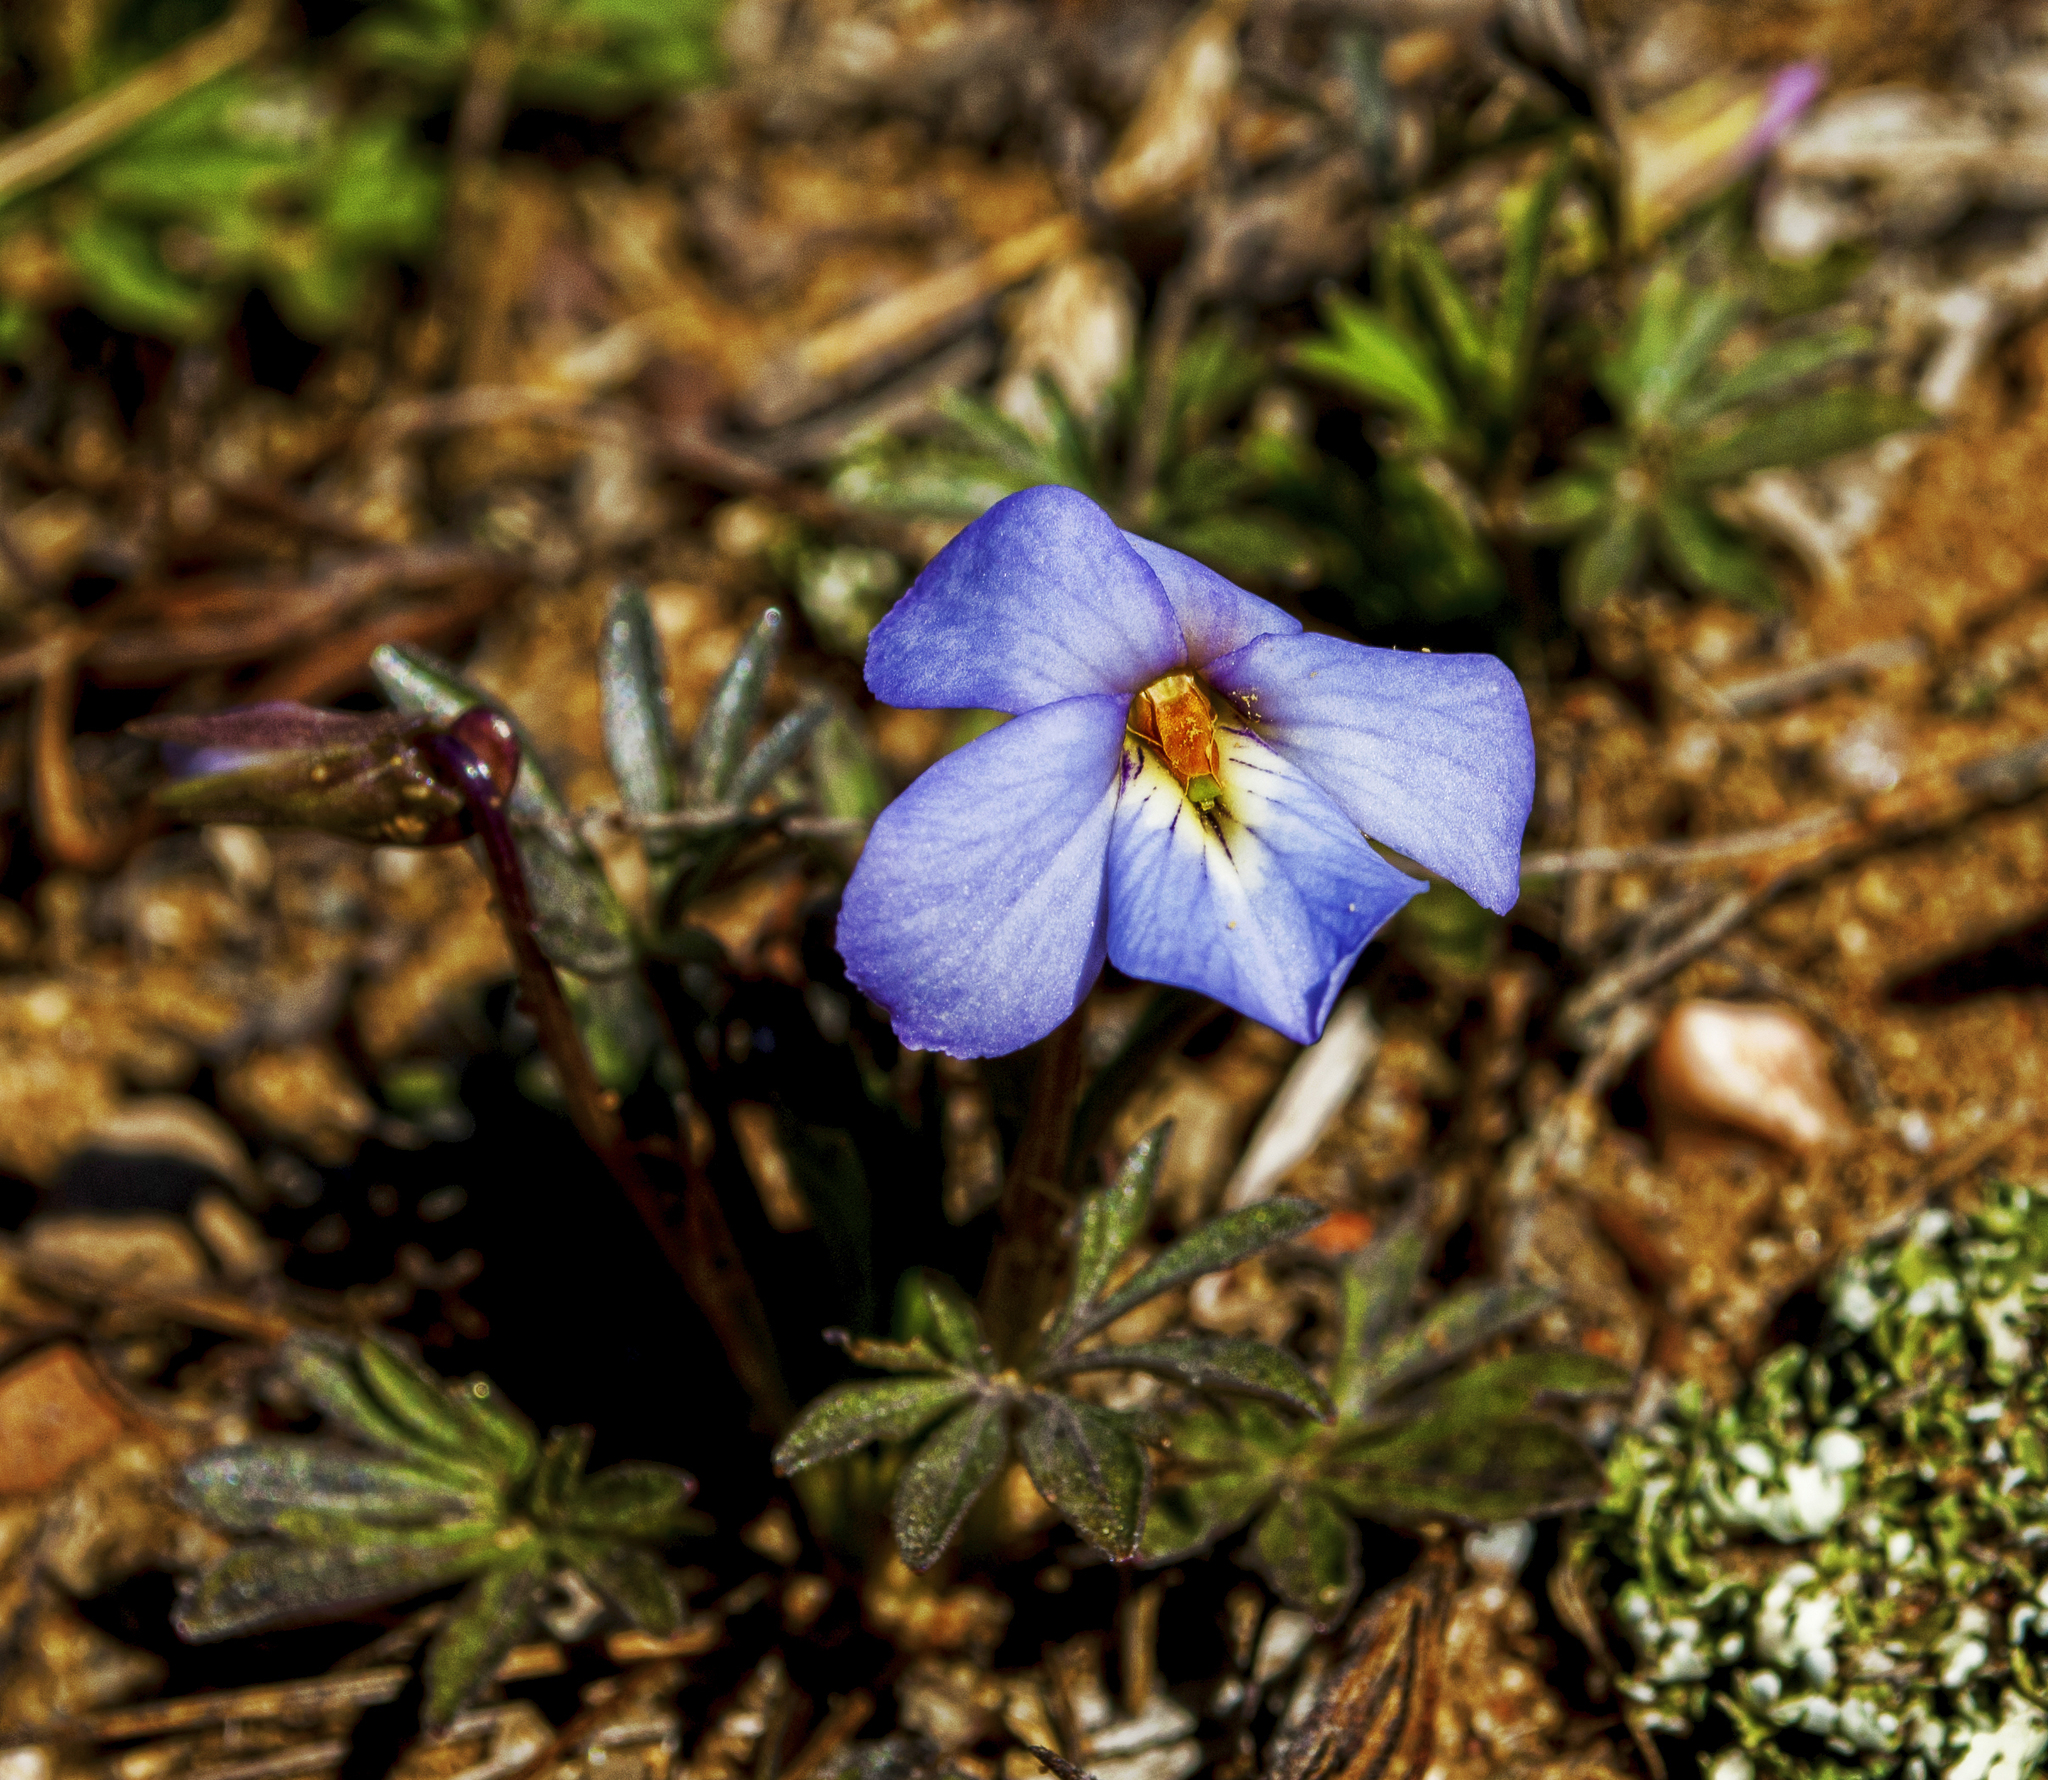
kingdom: Plantae
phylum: Tracheophyta
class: Magnoliopsida
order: Malpighiales
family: Violaceae
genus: Viola
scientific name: Viola pedata
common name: Pansy violet
